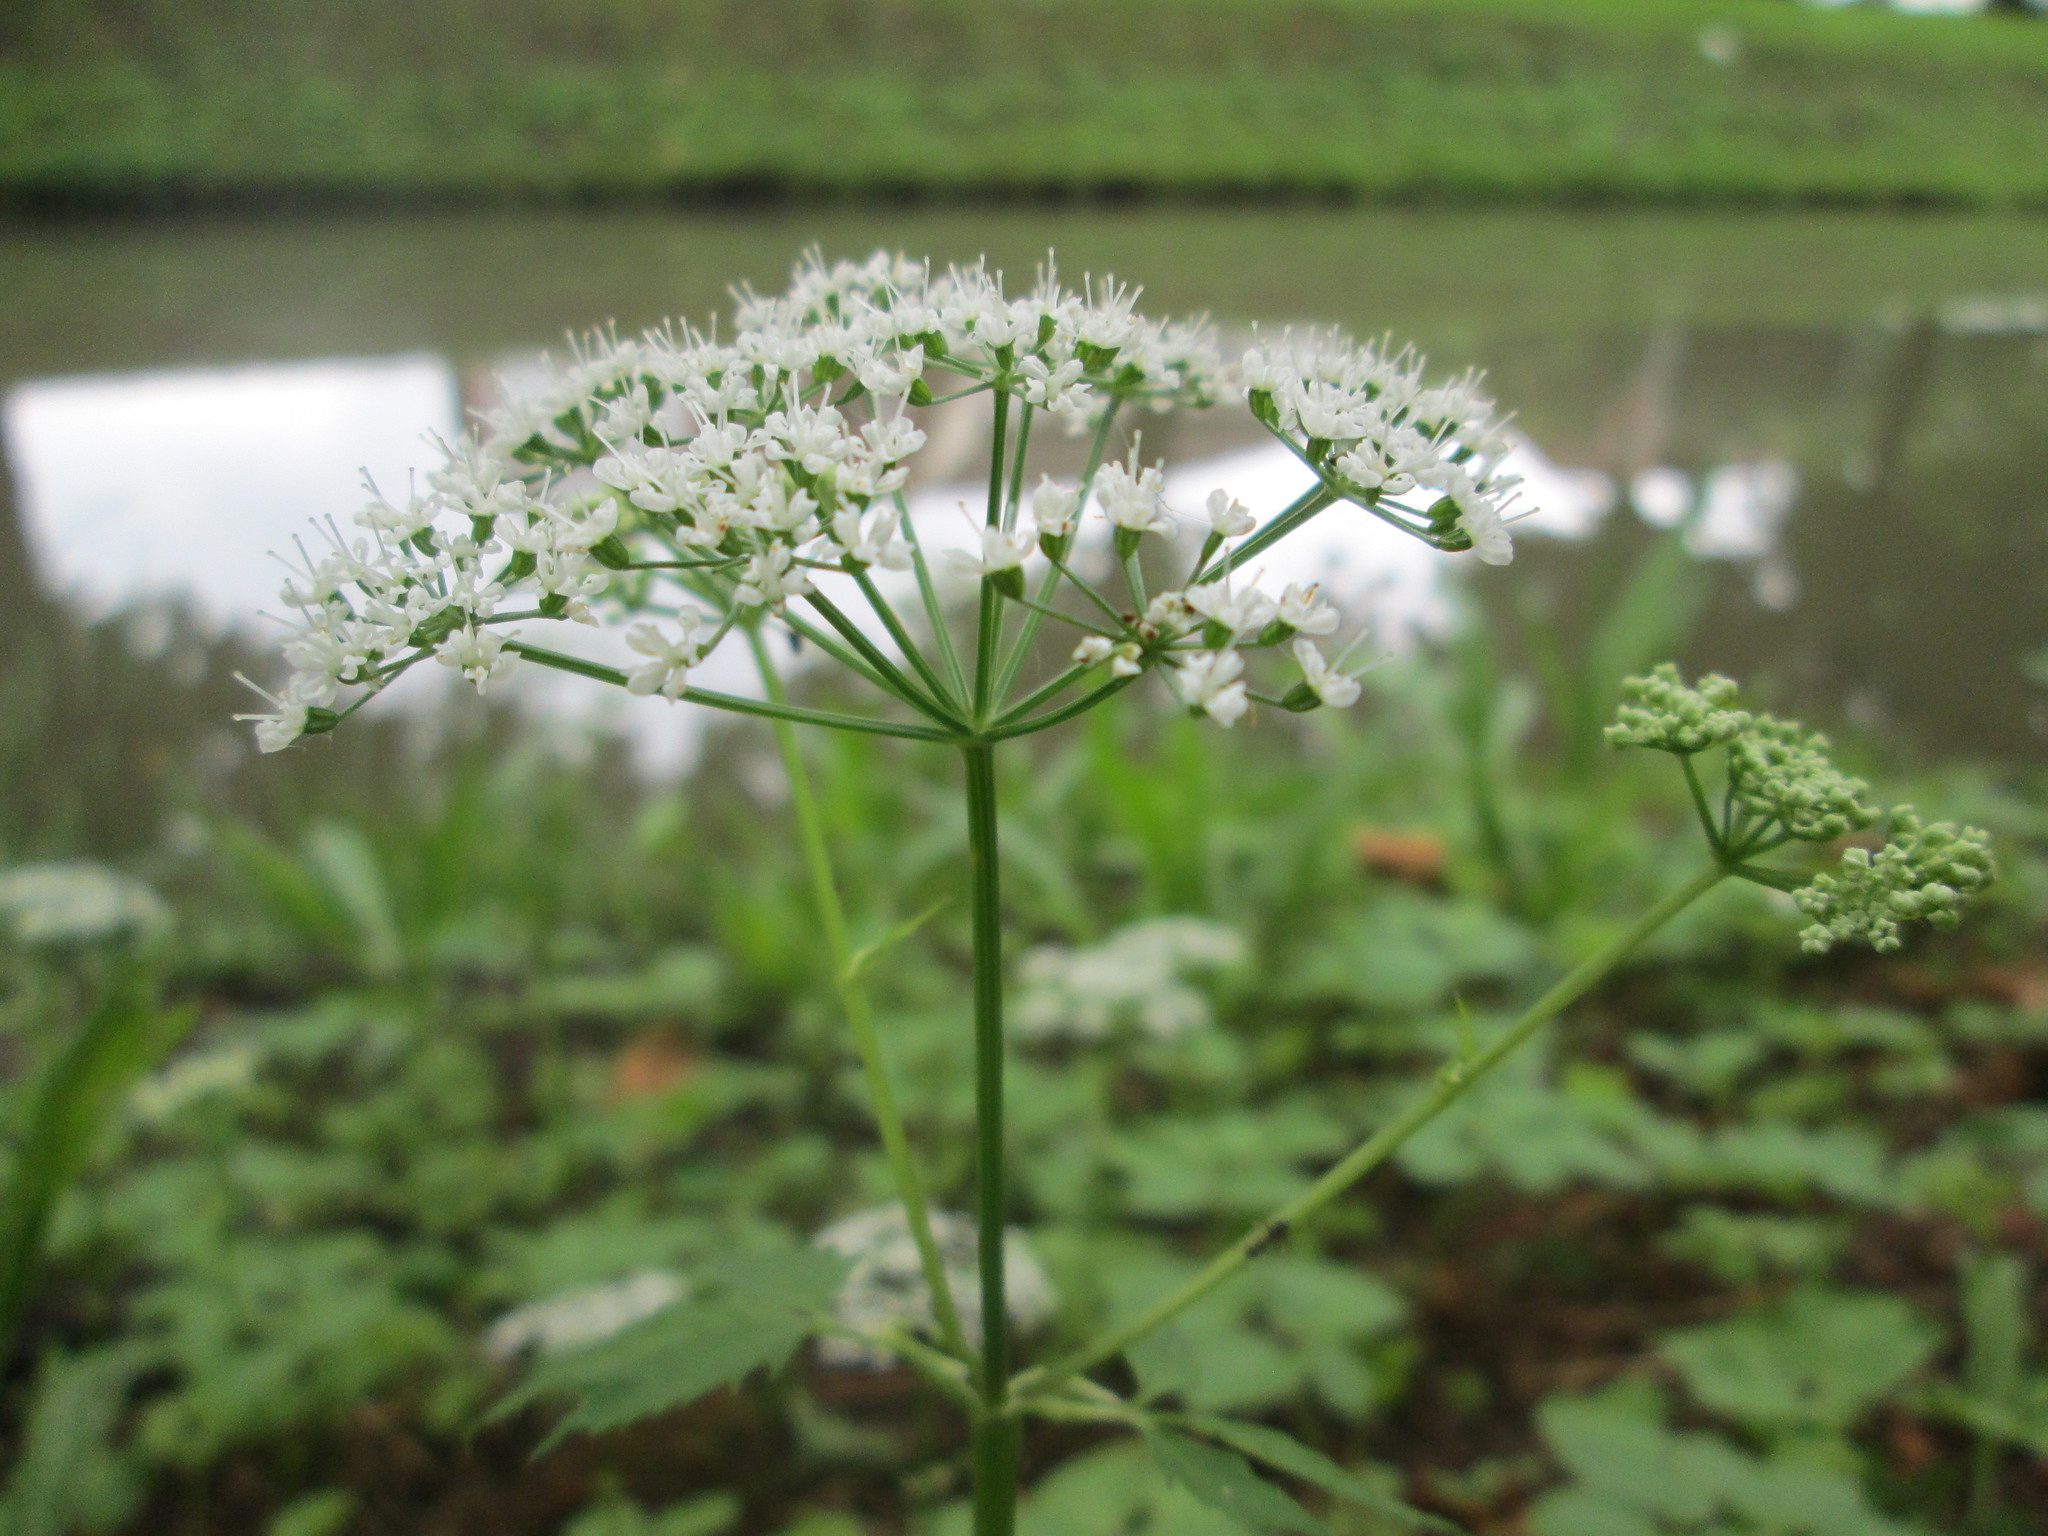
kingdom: Plantae
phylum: Tracheophyta
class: Magnoliopsida
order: Apiales
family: Apiaceae
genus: Aegopodium
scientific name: Aegopodium podagraria
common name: Ground-elder
